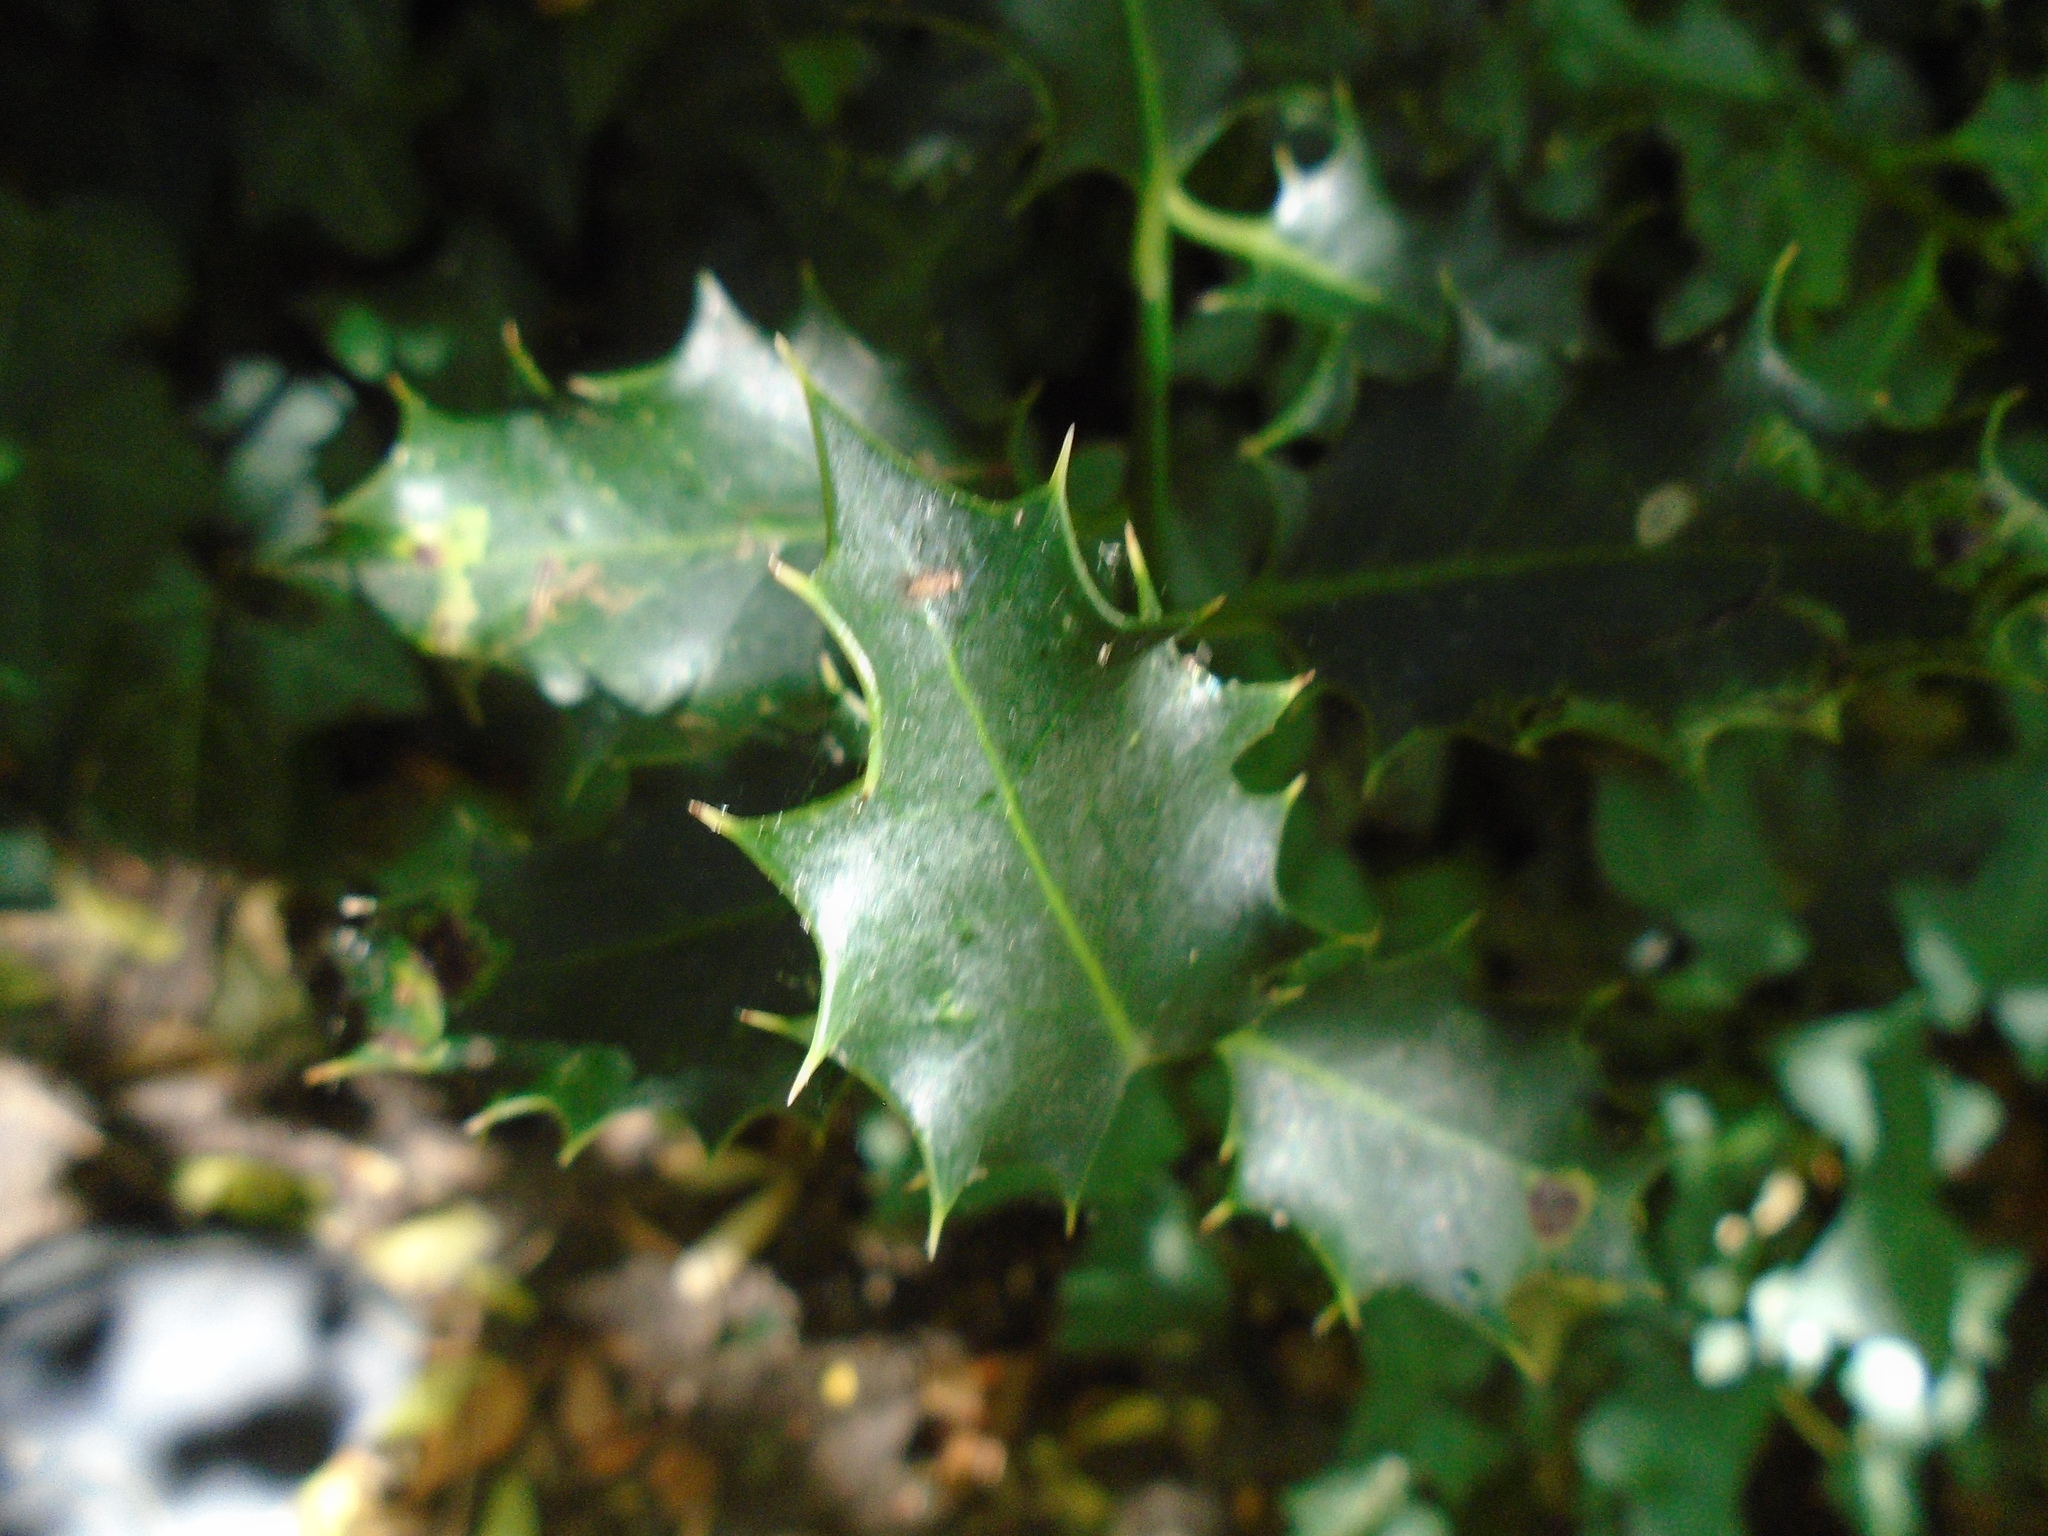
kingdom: Plantae
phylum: Tracheophyta
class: Magnoliopsida
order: Aquifoliales
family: Aquifoliaceae
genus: Ilex
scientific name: Ilex aquifolium
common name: English holly
